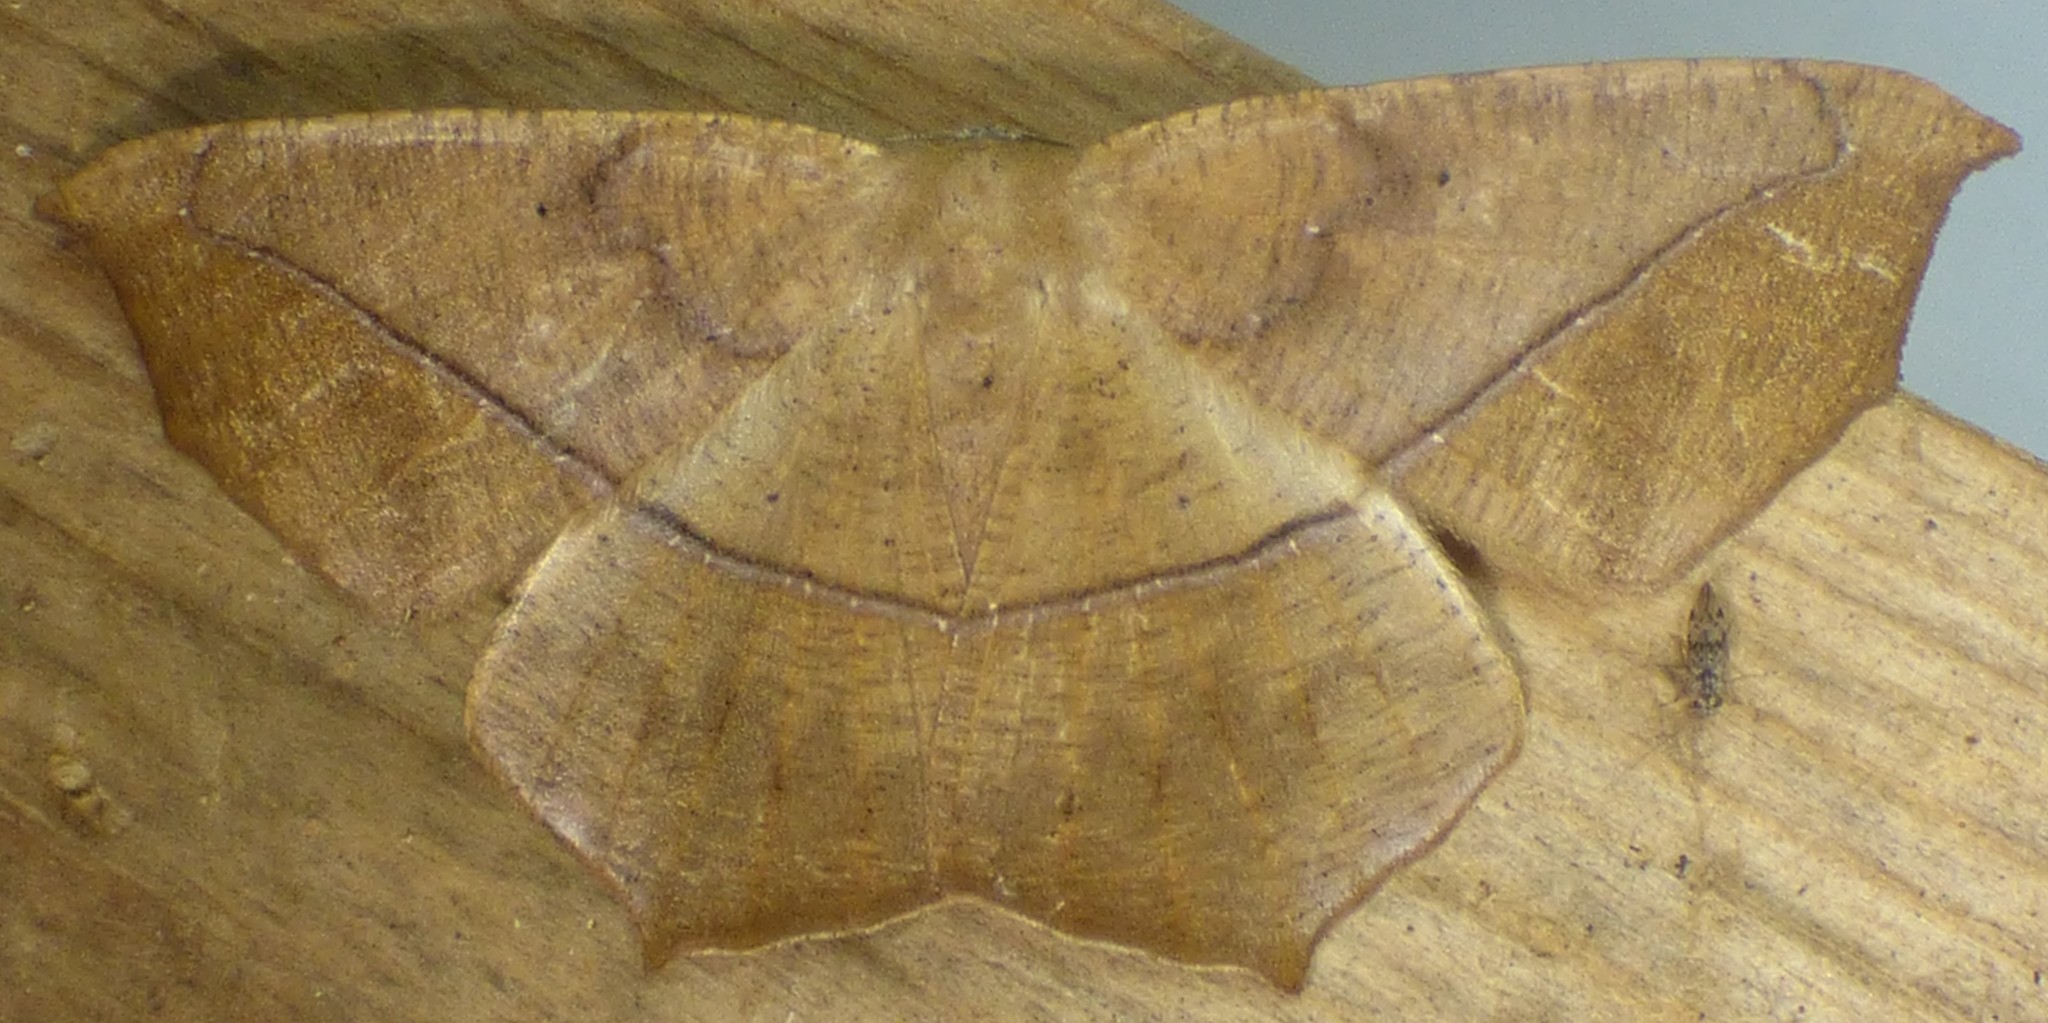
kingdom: Animalia
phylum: Arthropoda
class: Insecta
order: Lepidoptera
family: Geometridae
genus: Prochoerodes
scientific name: Prochoerodes lineola
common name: Large maple spanworm
